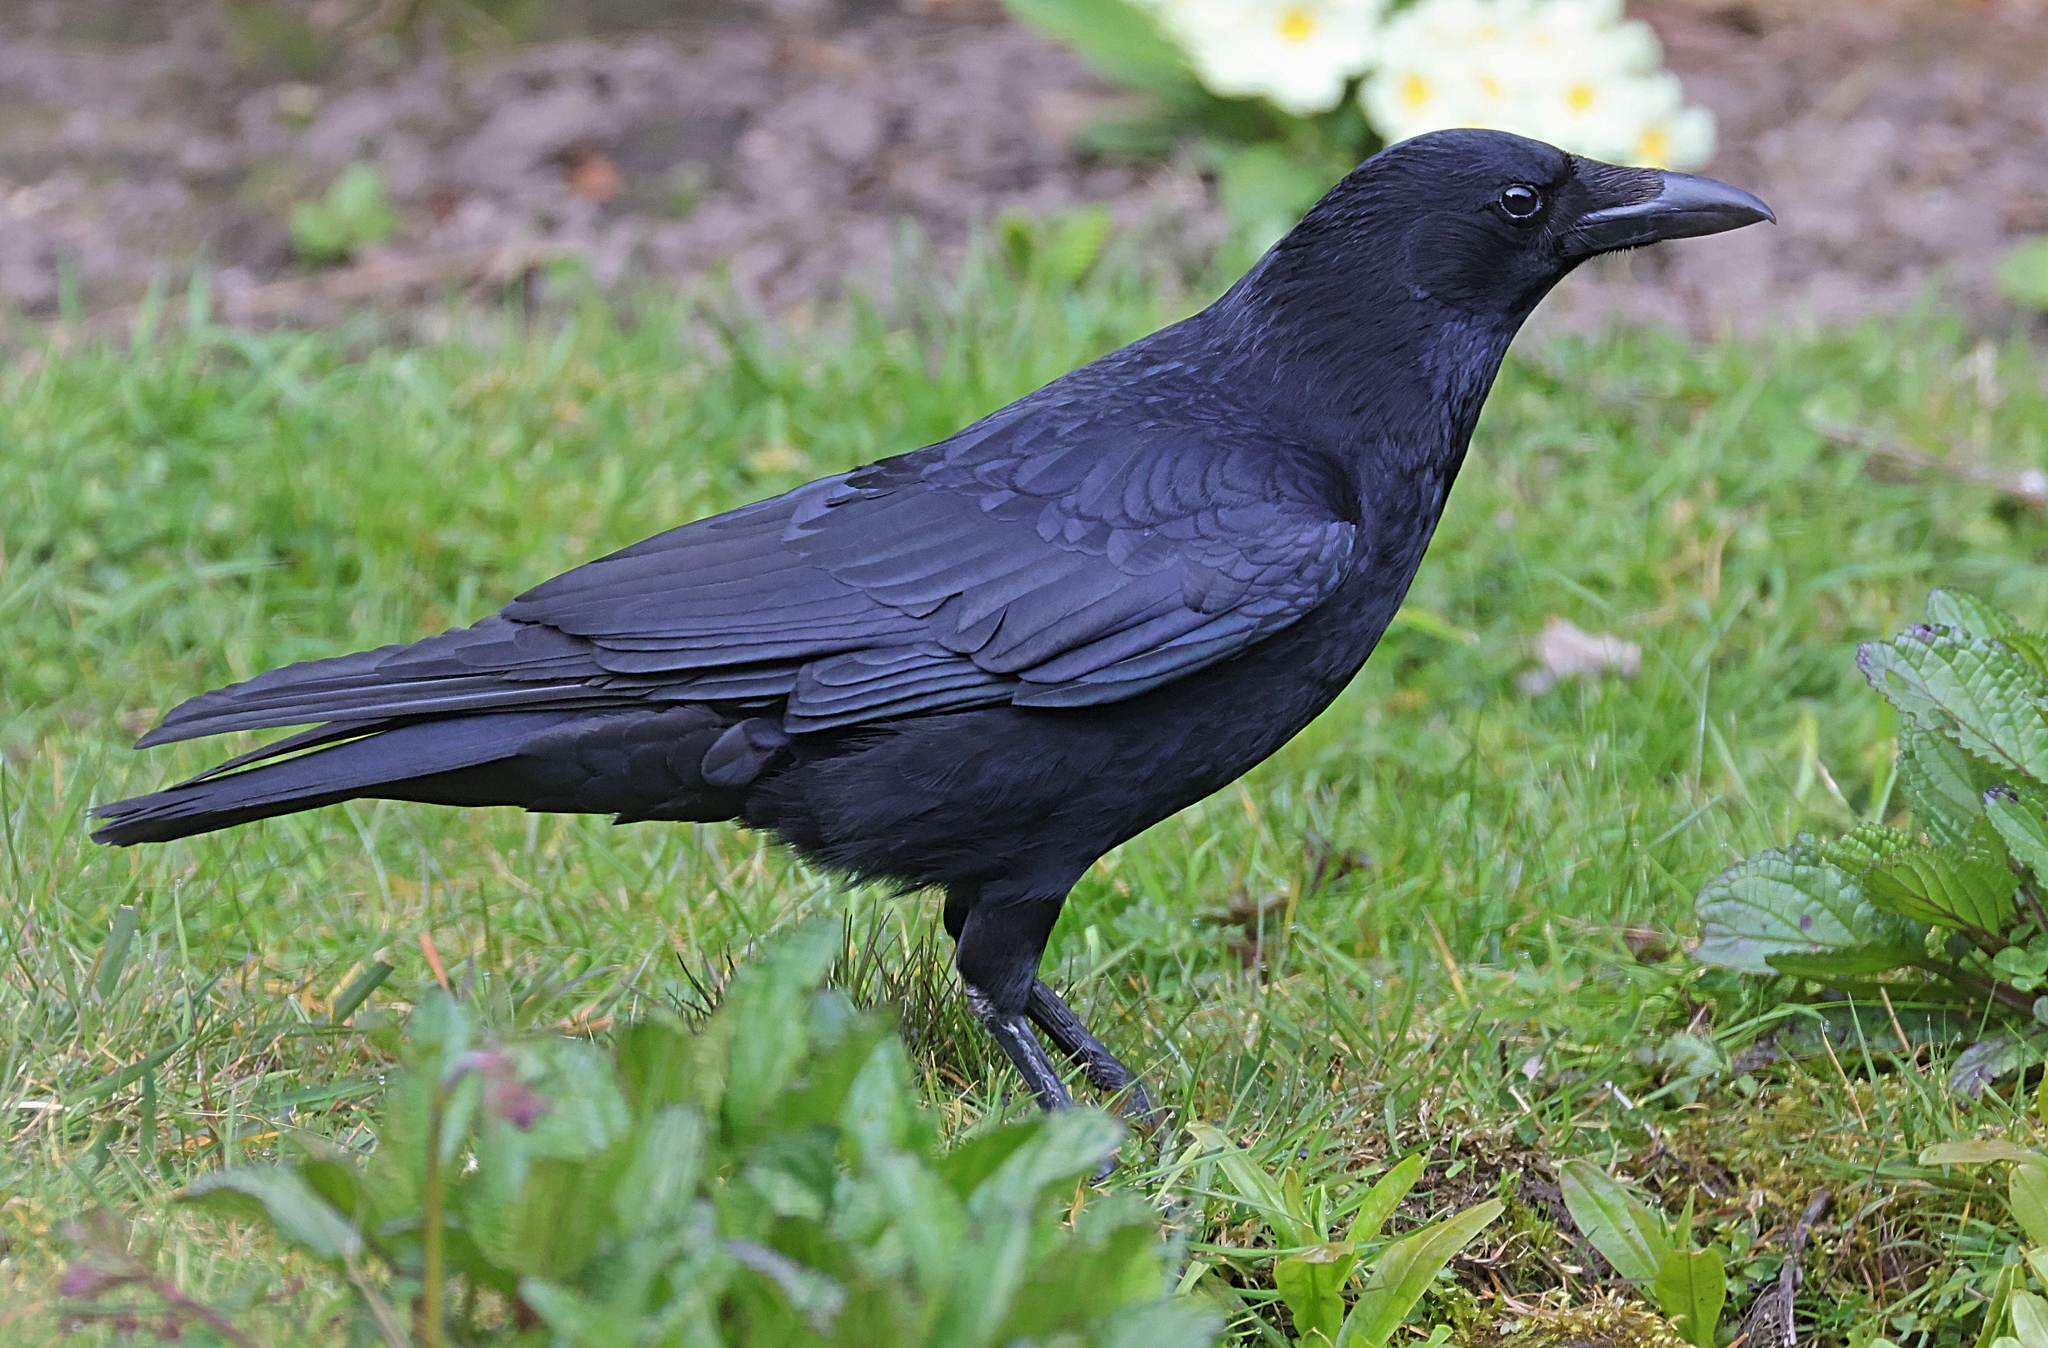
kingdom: Animalia
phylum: Chordata
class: Aves
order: Passeriformes
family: Corvidae
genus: Corvus
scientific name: Corvus corone
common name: Carrion crow
